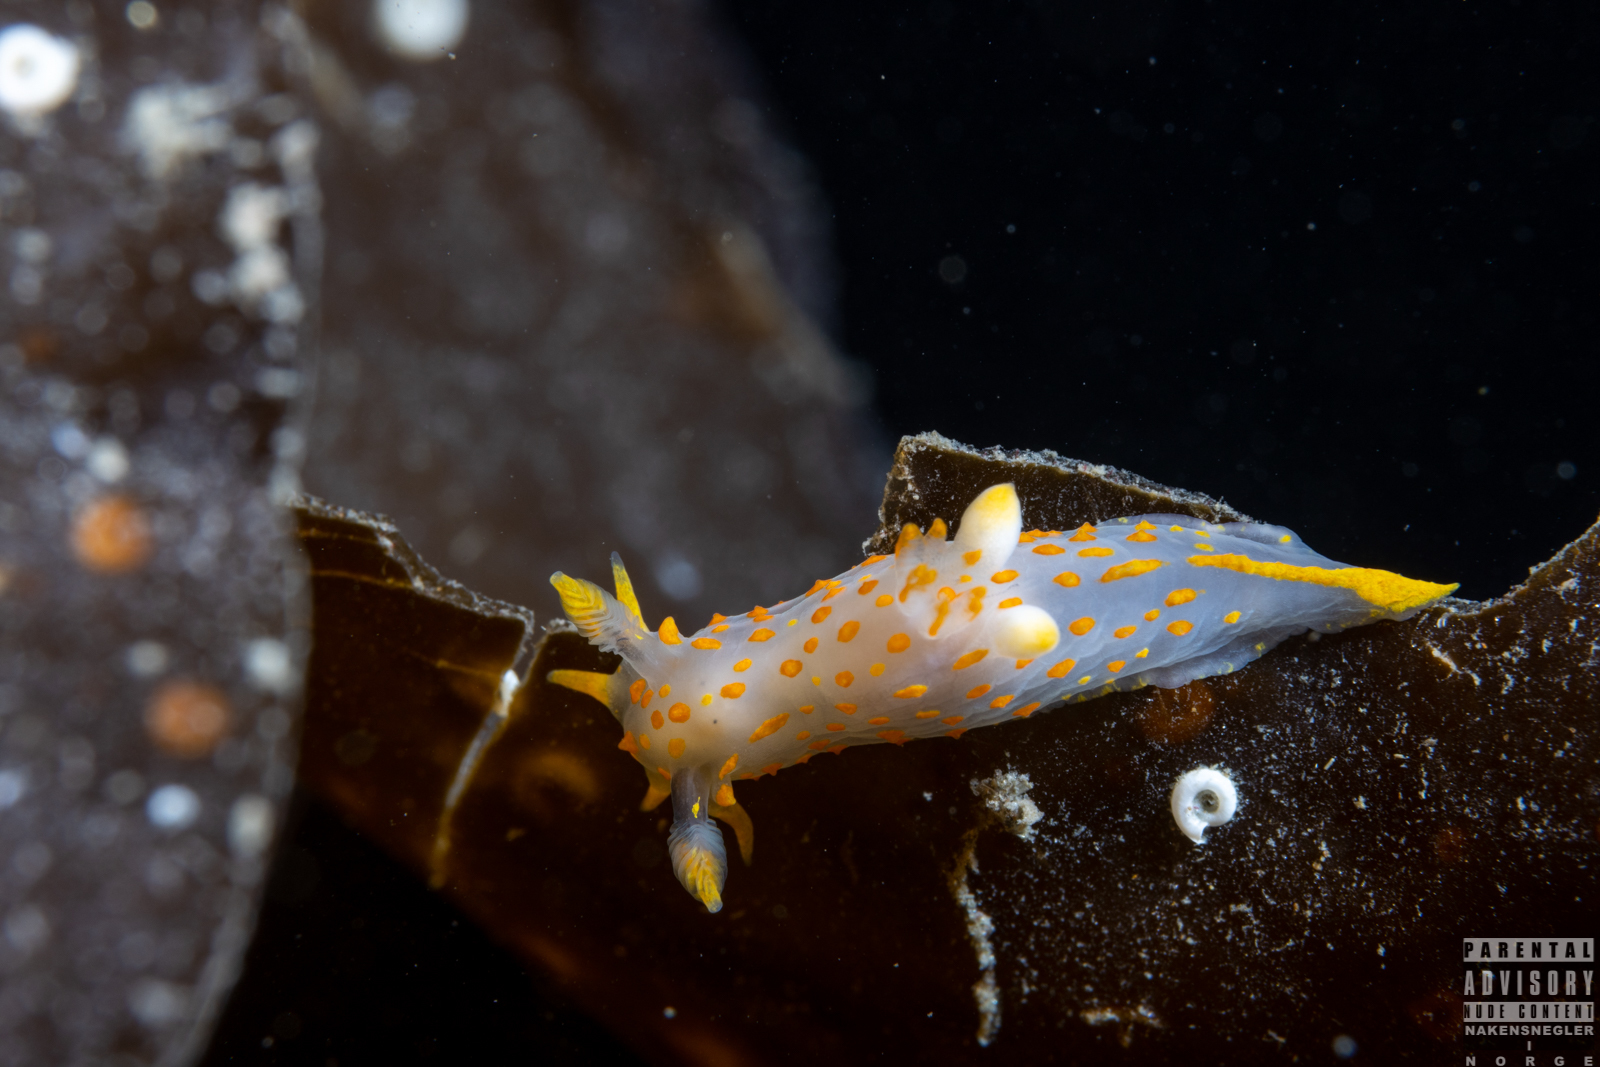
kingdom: Animalia
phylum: Mollusca
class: Gastropoda
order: Nudibranchia
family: Polyceridae
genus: Polycera
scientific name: Polycera quadrilineata
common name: Four-striped polycera
